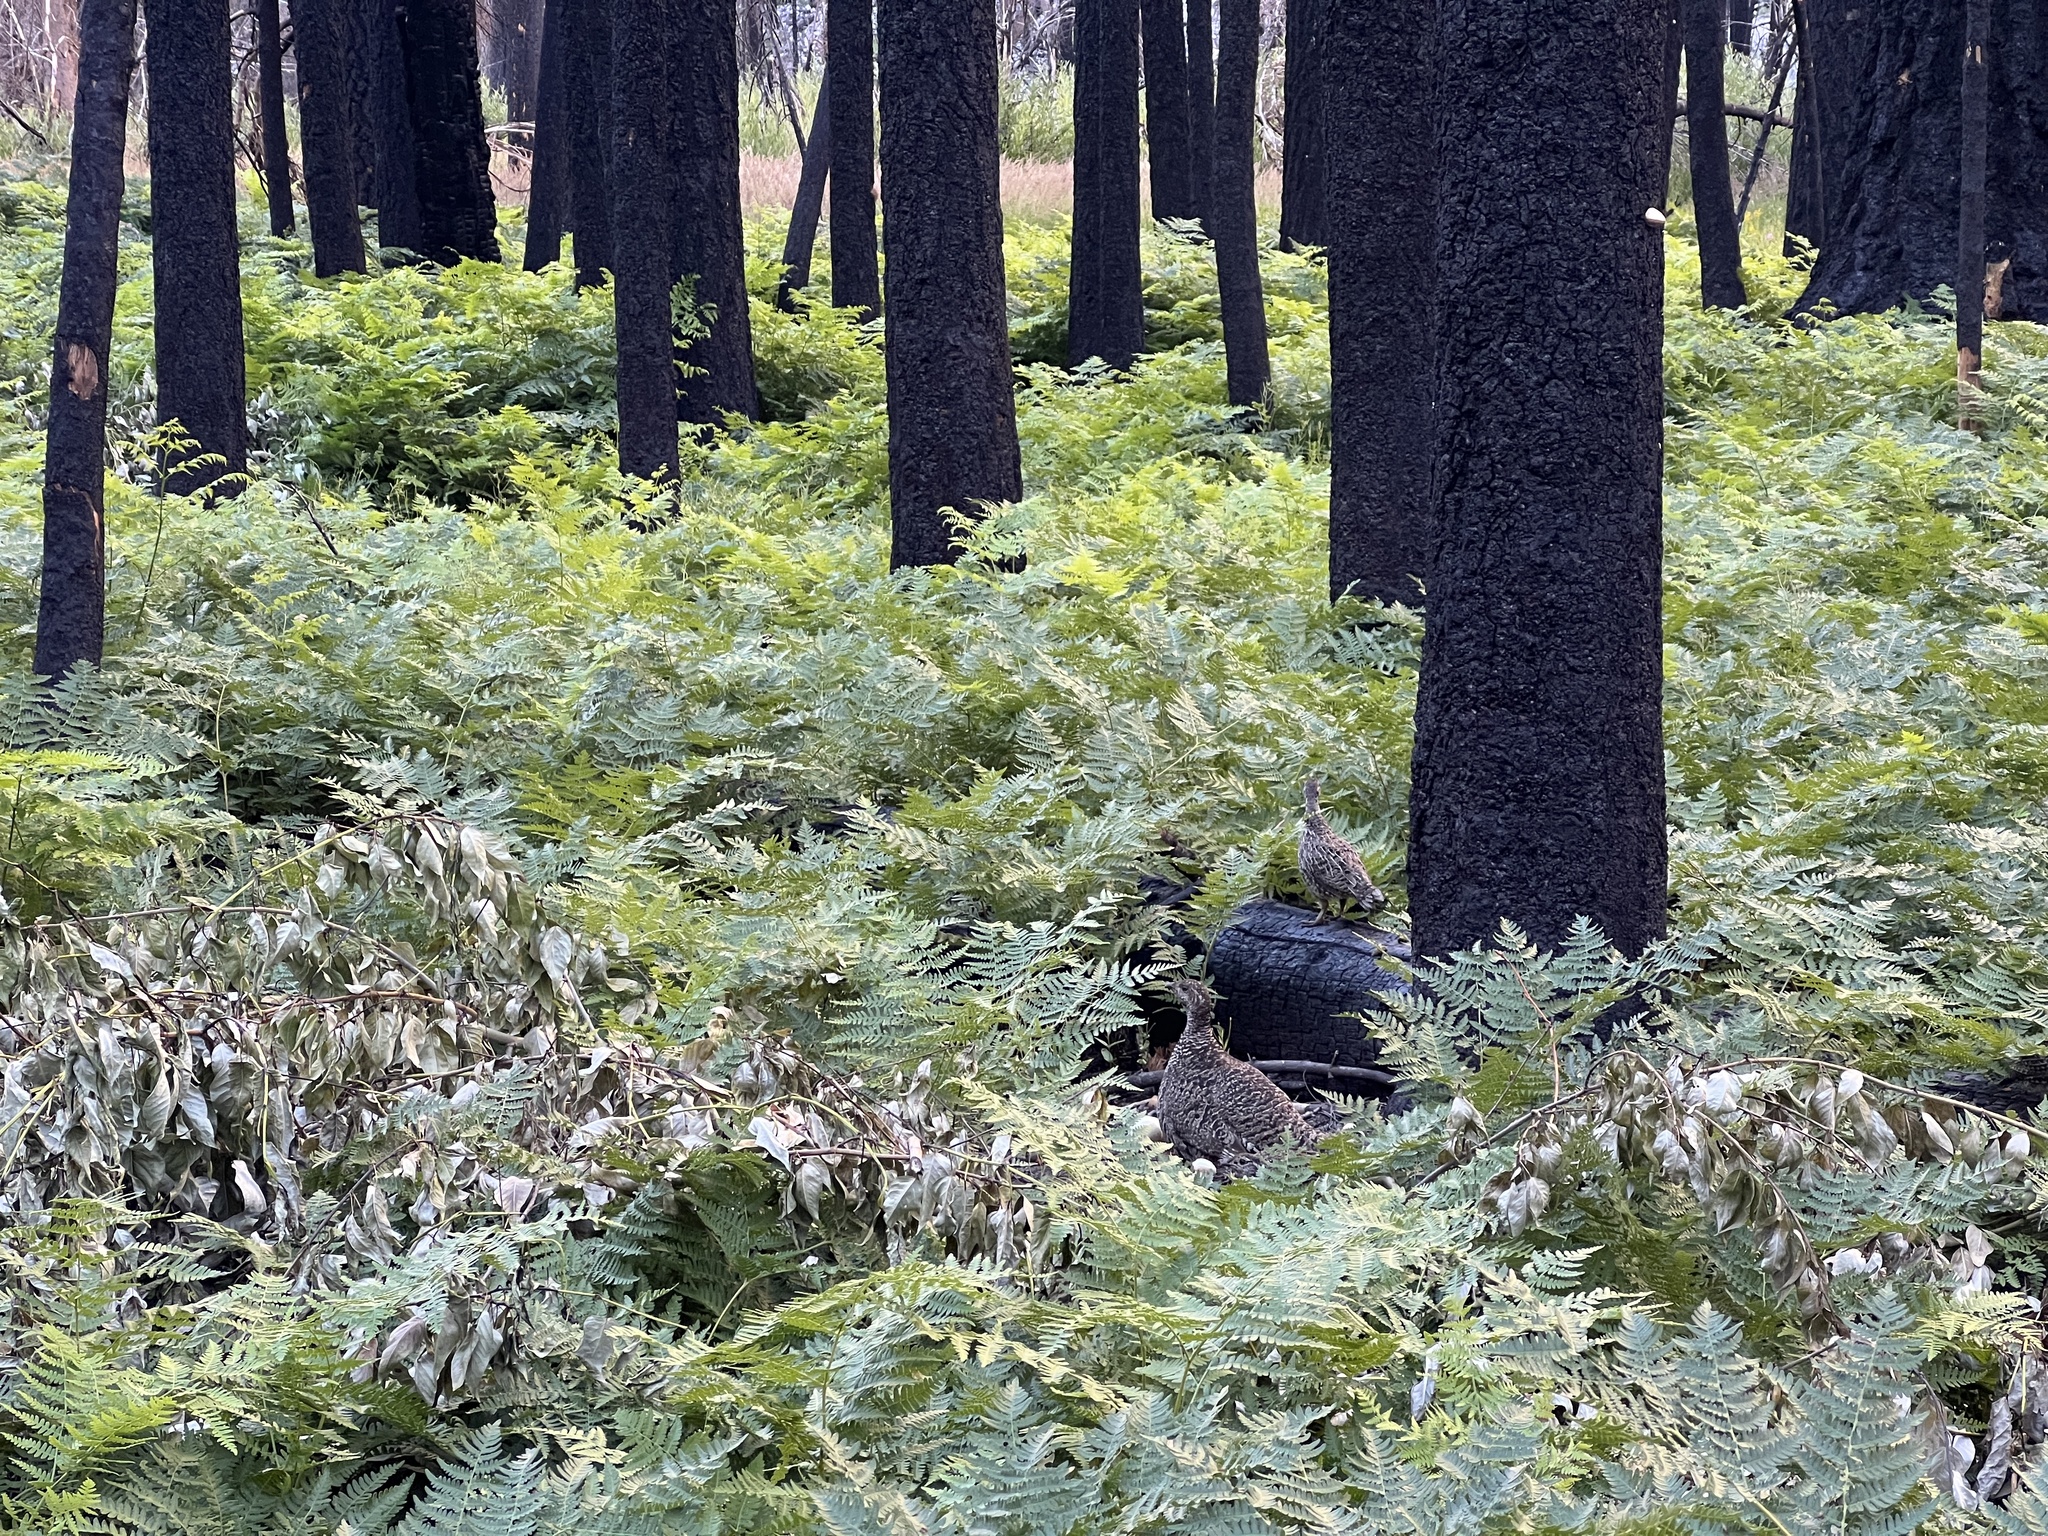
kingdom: Animalia
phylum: Chordata
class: Aves
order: Galliformes
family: Phasianidae
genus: Dendragapus
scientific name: Dendragapus fuliginosus
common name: Sooty grouse
